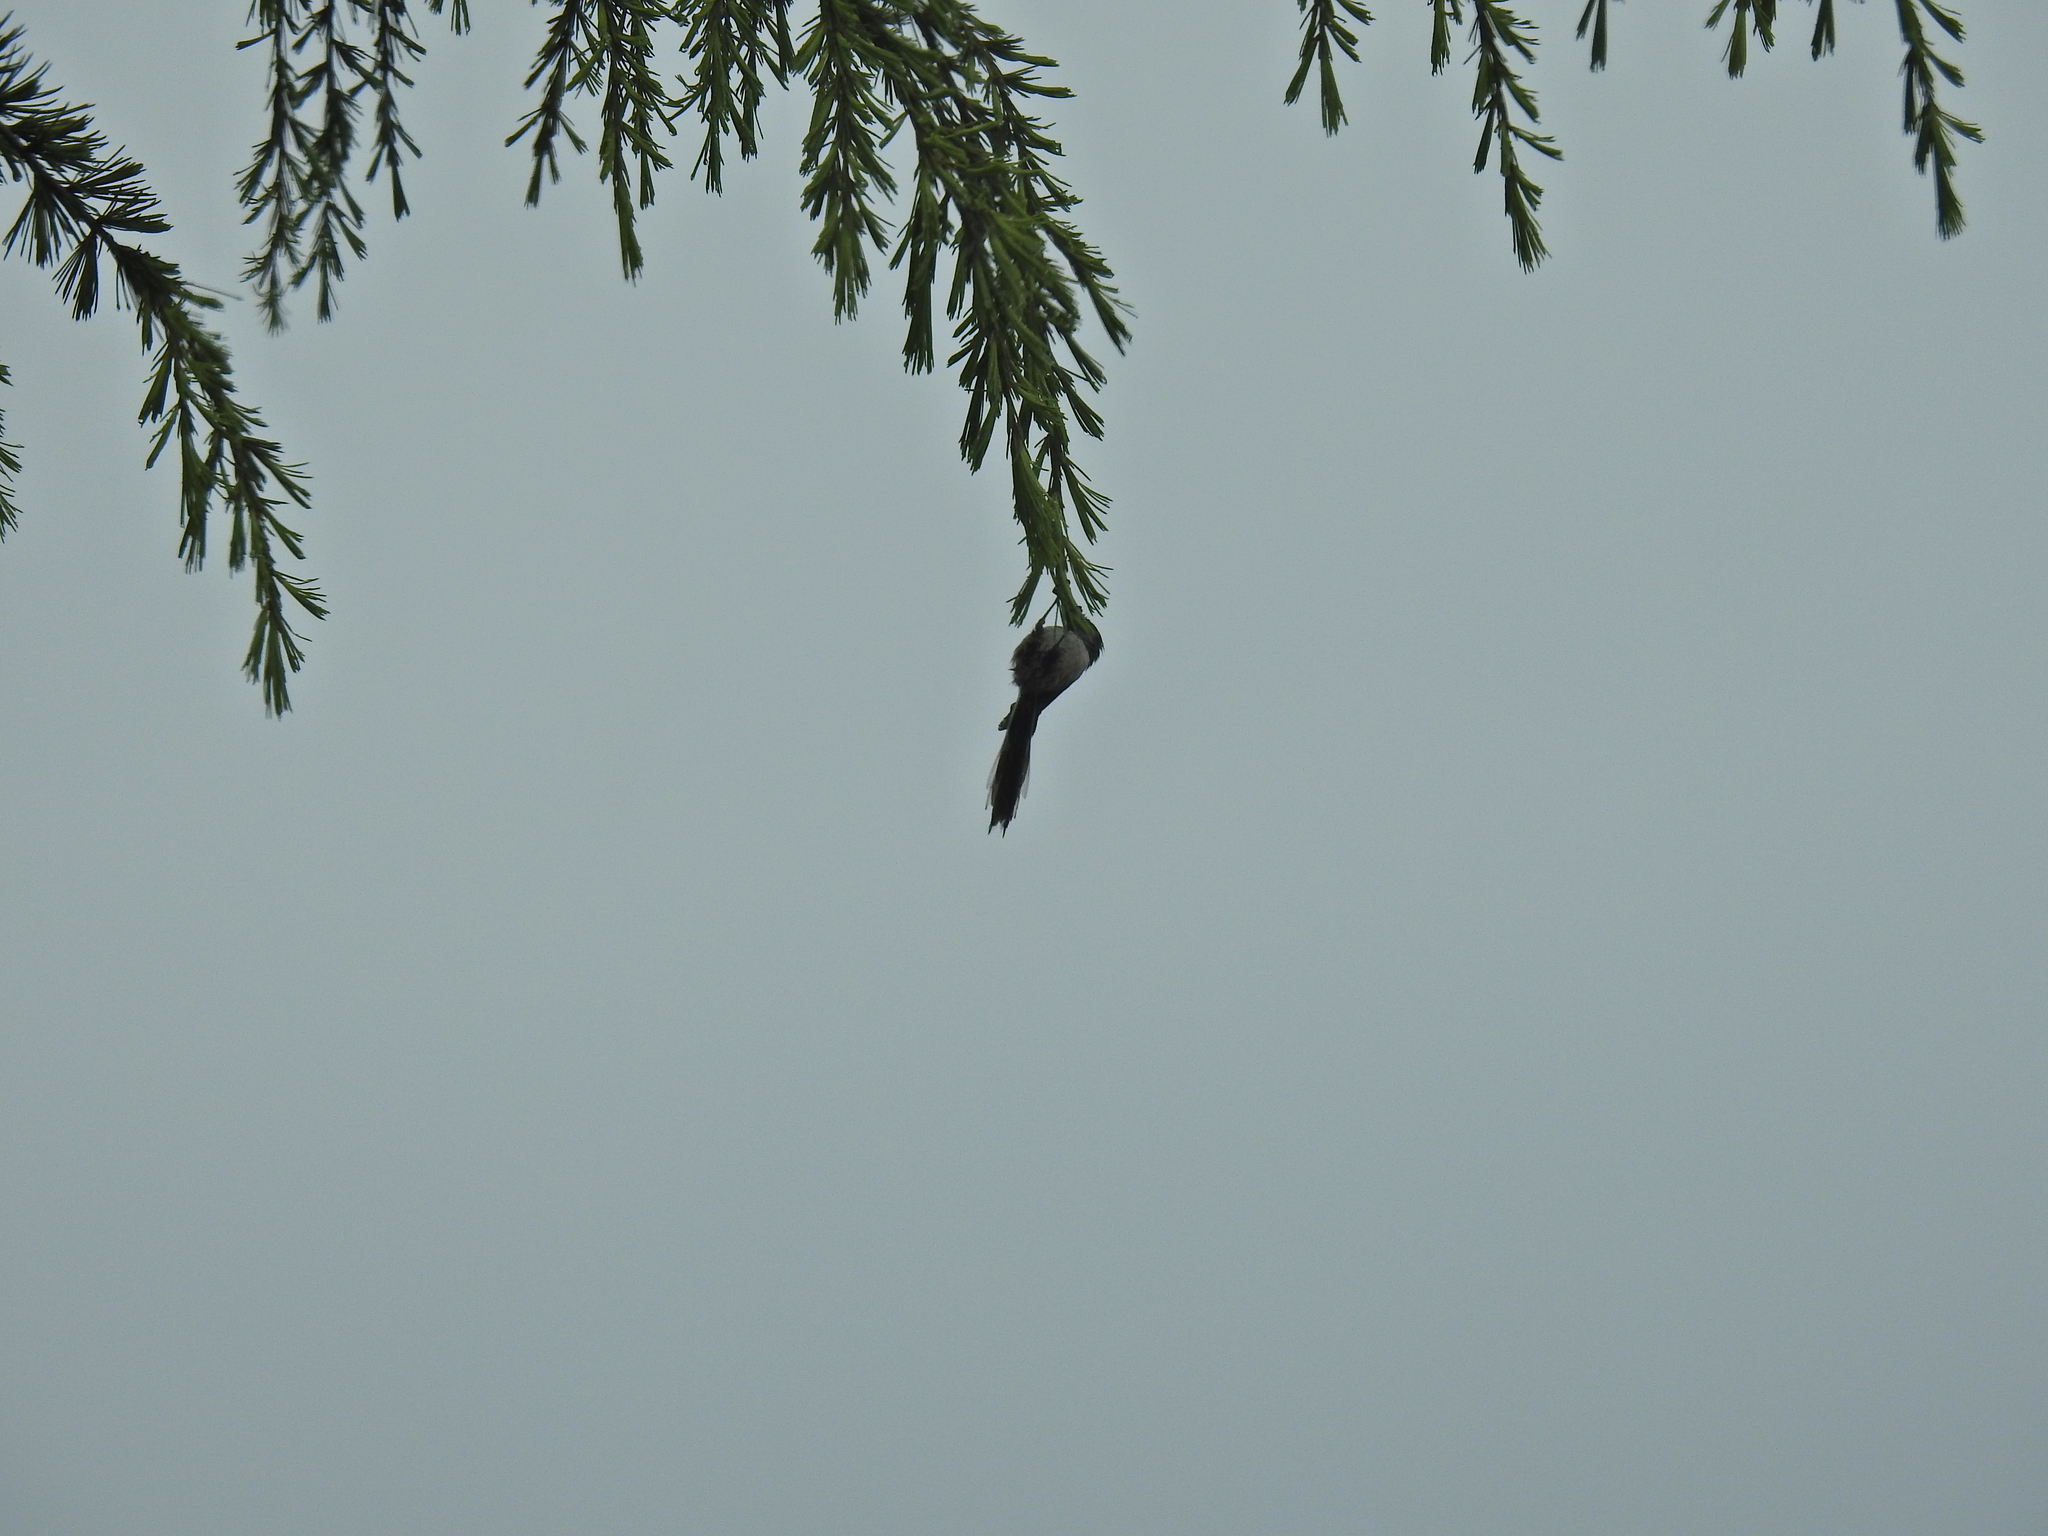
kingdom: Animalia
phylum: Chordata
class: Aves
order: Passeriformes
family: Aegithalidae
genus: Aegithalos
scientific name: Aegithalos caudatus
